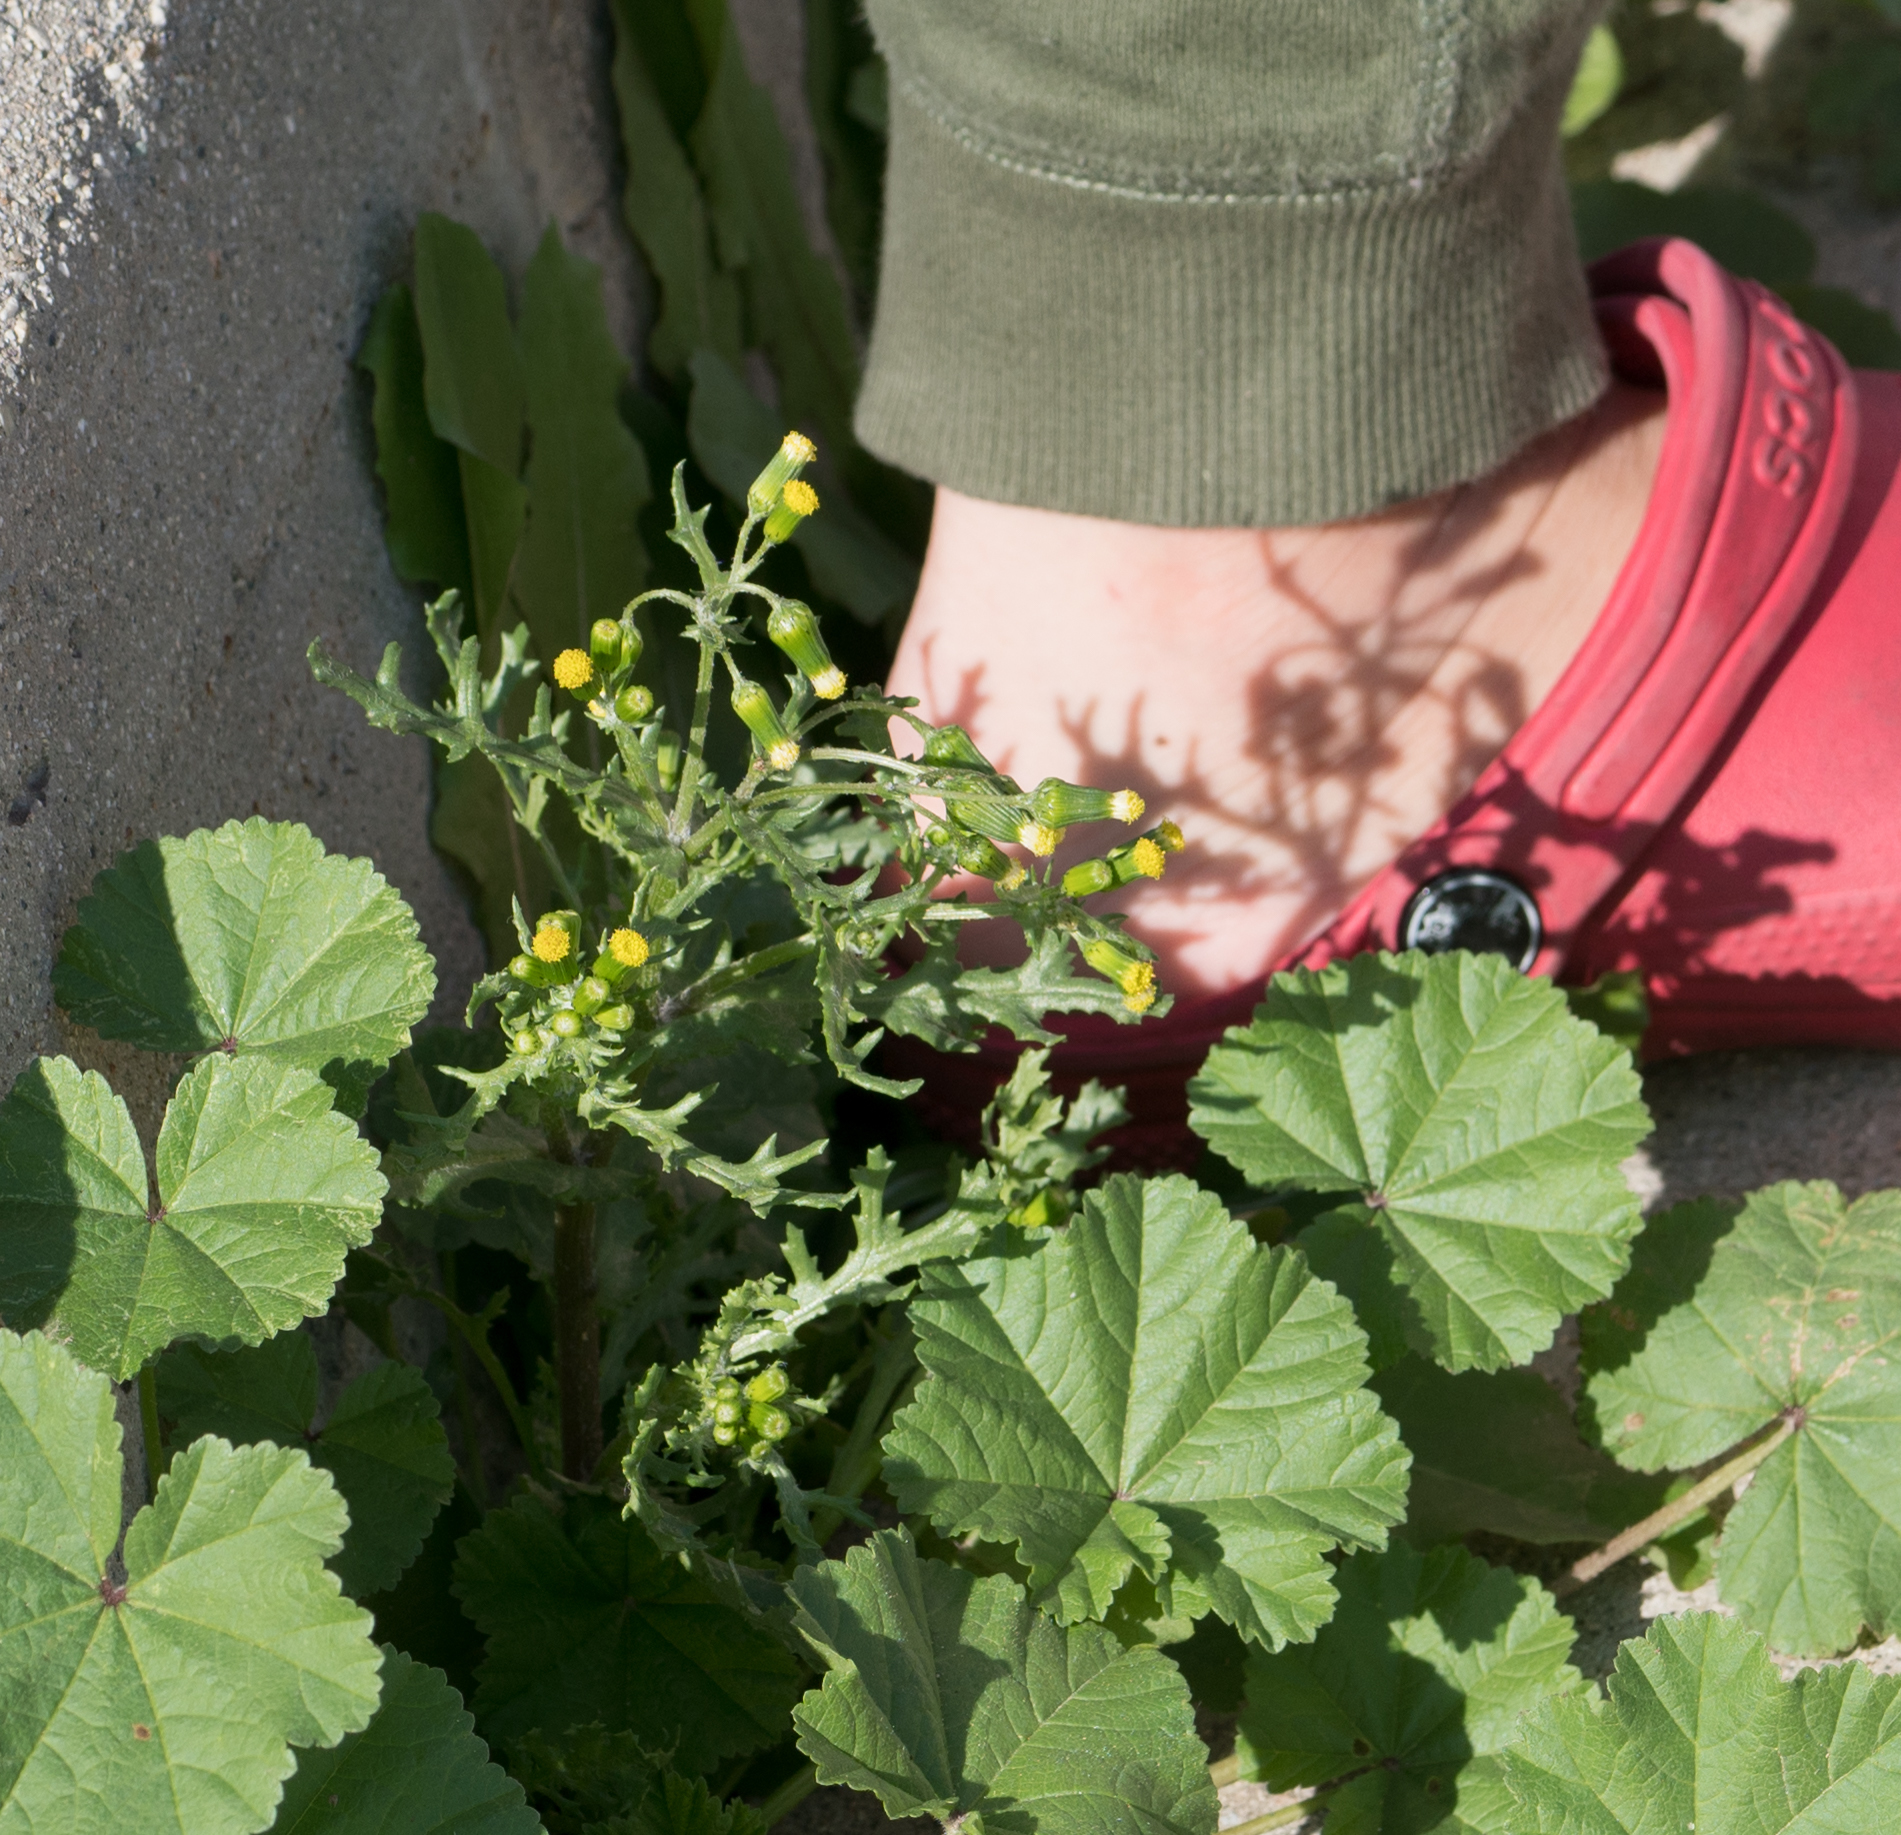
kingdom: Plantae
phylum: Tracheophyta
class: Magnoliopsida
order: Asterales
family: Asteraceae
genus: Senecio
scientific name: Senecio vulgaris
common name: Old-man-in-the-spring
